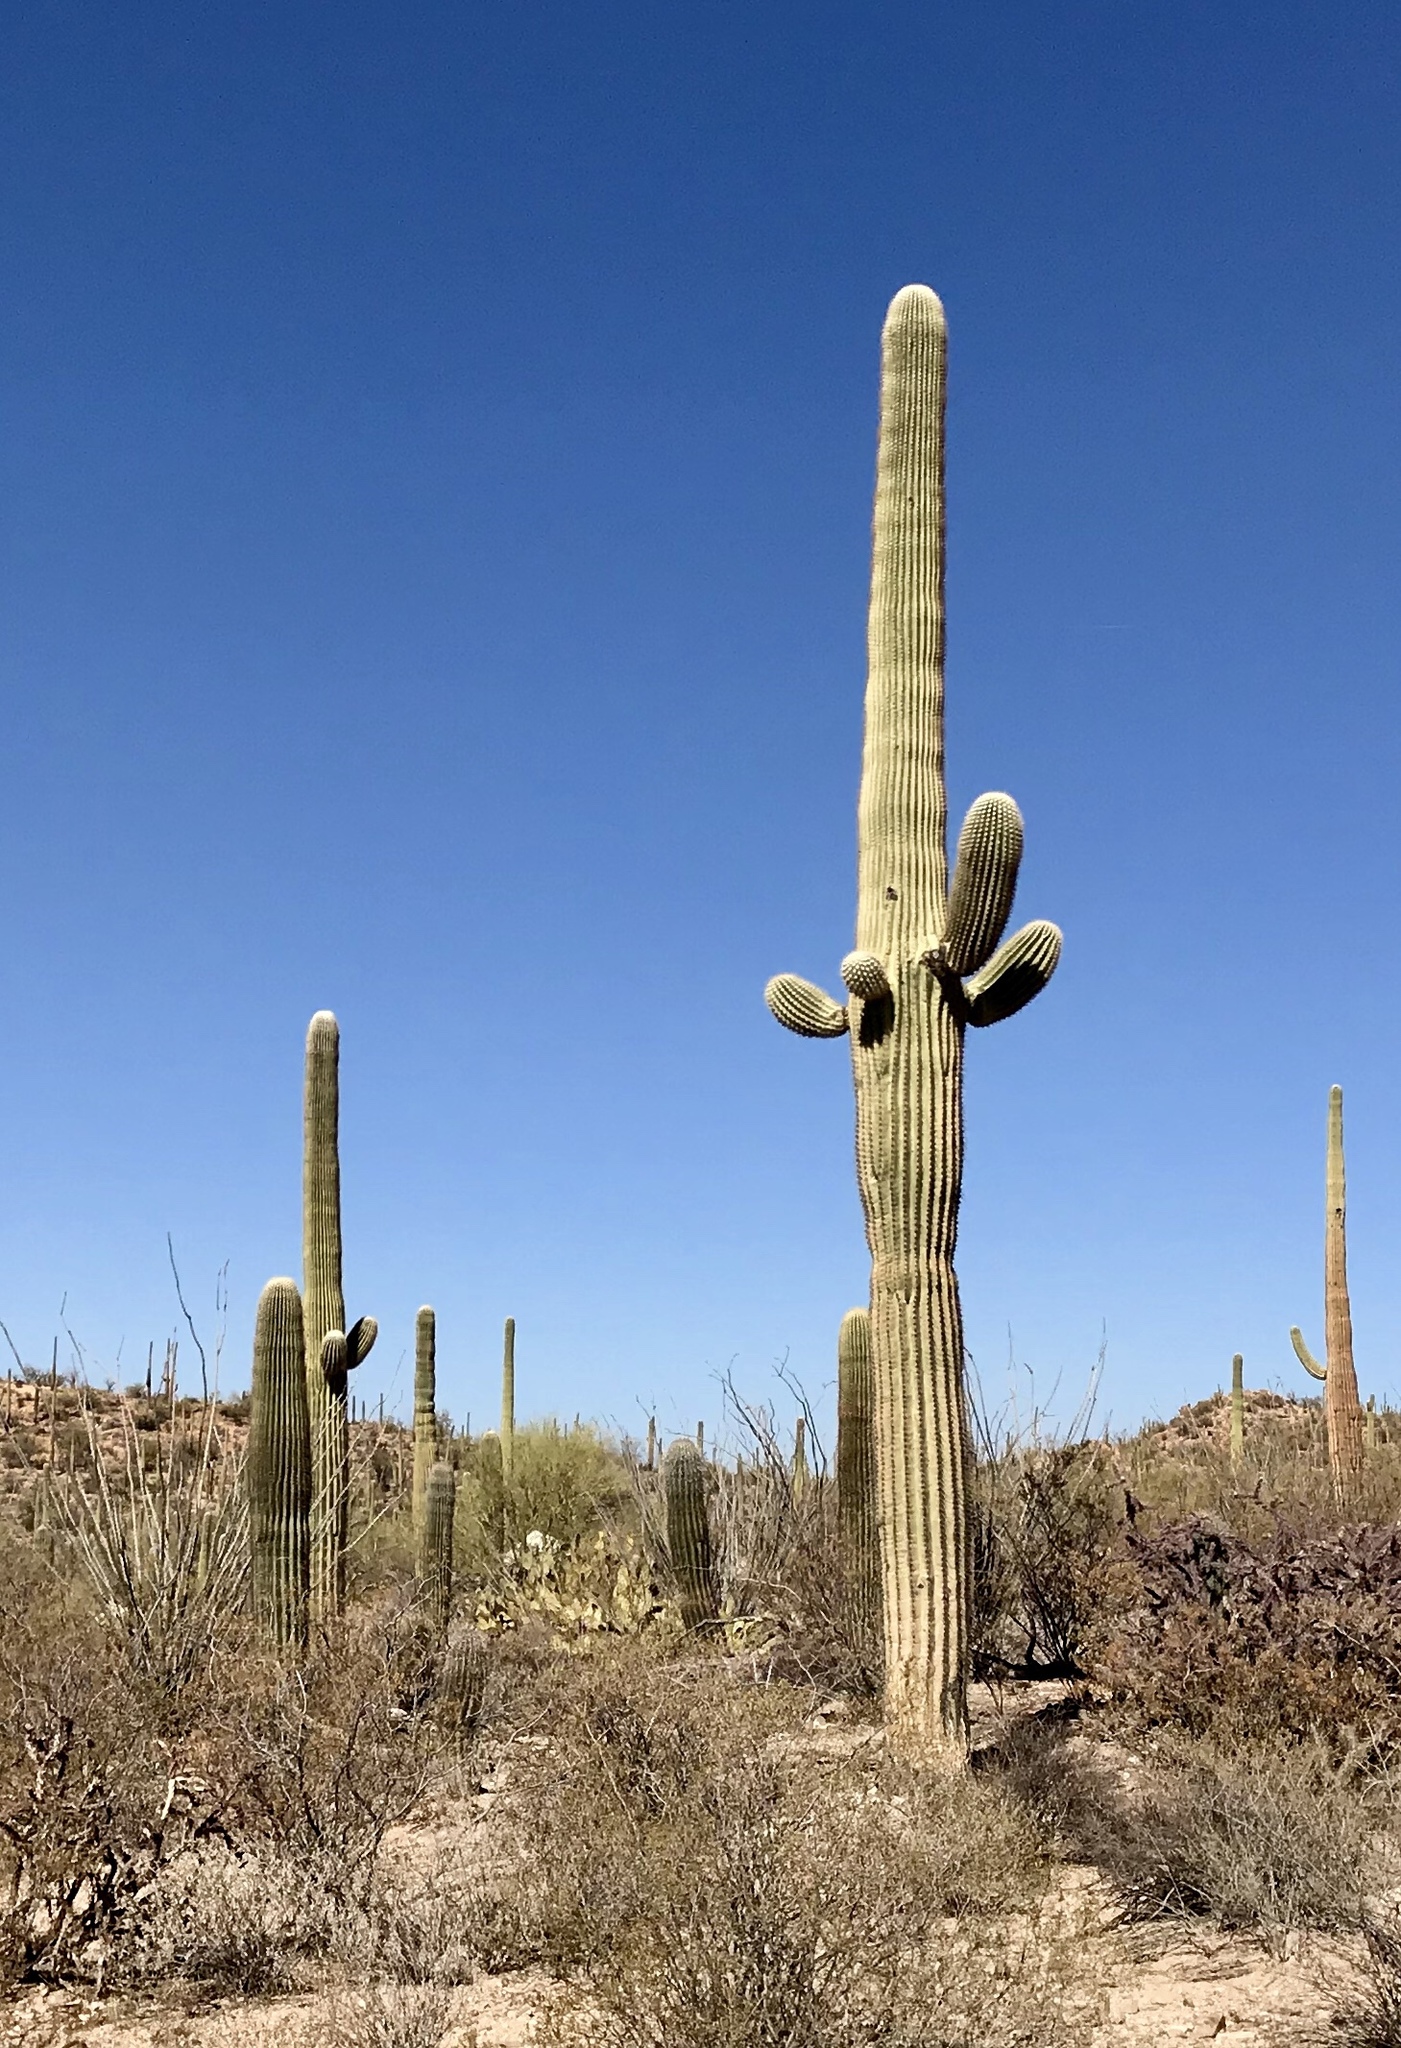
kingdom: Plantae
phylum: Tracheophyta
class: Magnoliopsida
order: Caryophyllales
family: Cactaceae
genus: Carnegiea
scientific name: Carnegiea gigantea
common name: Saguaro
